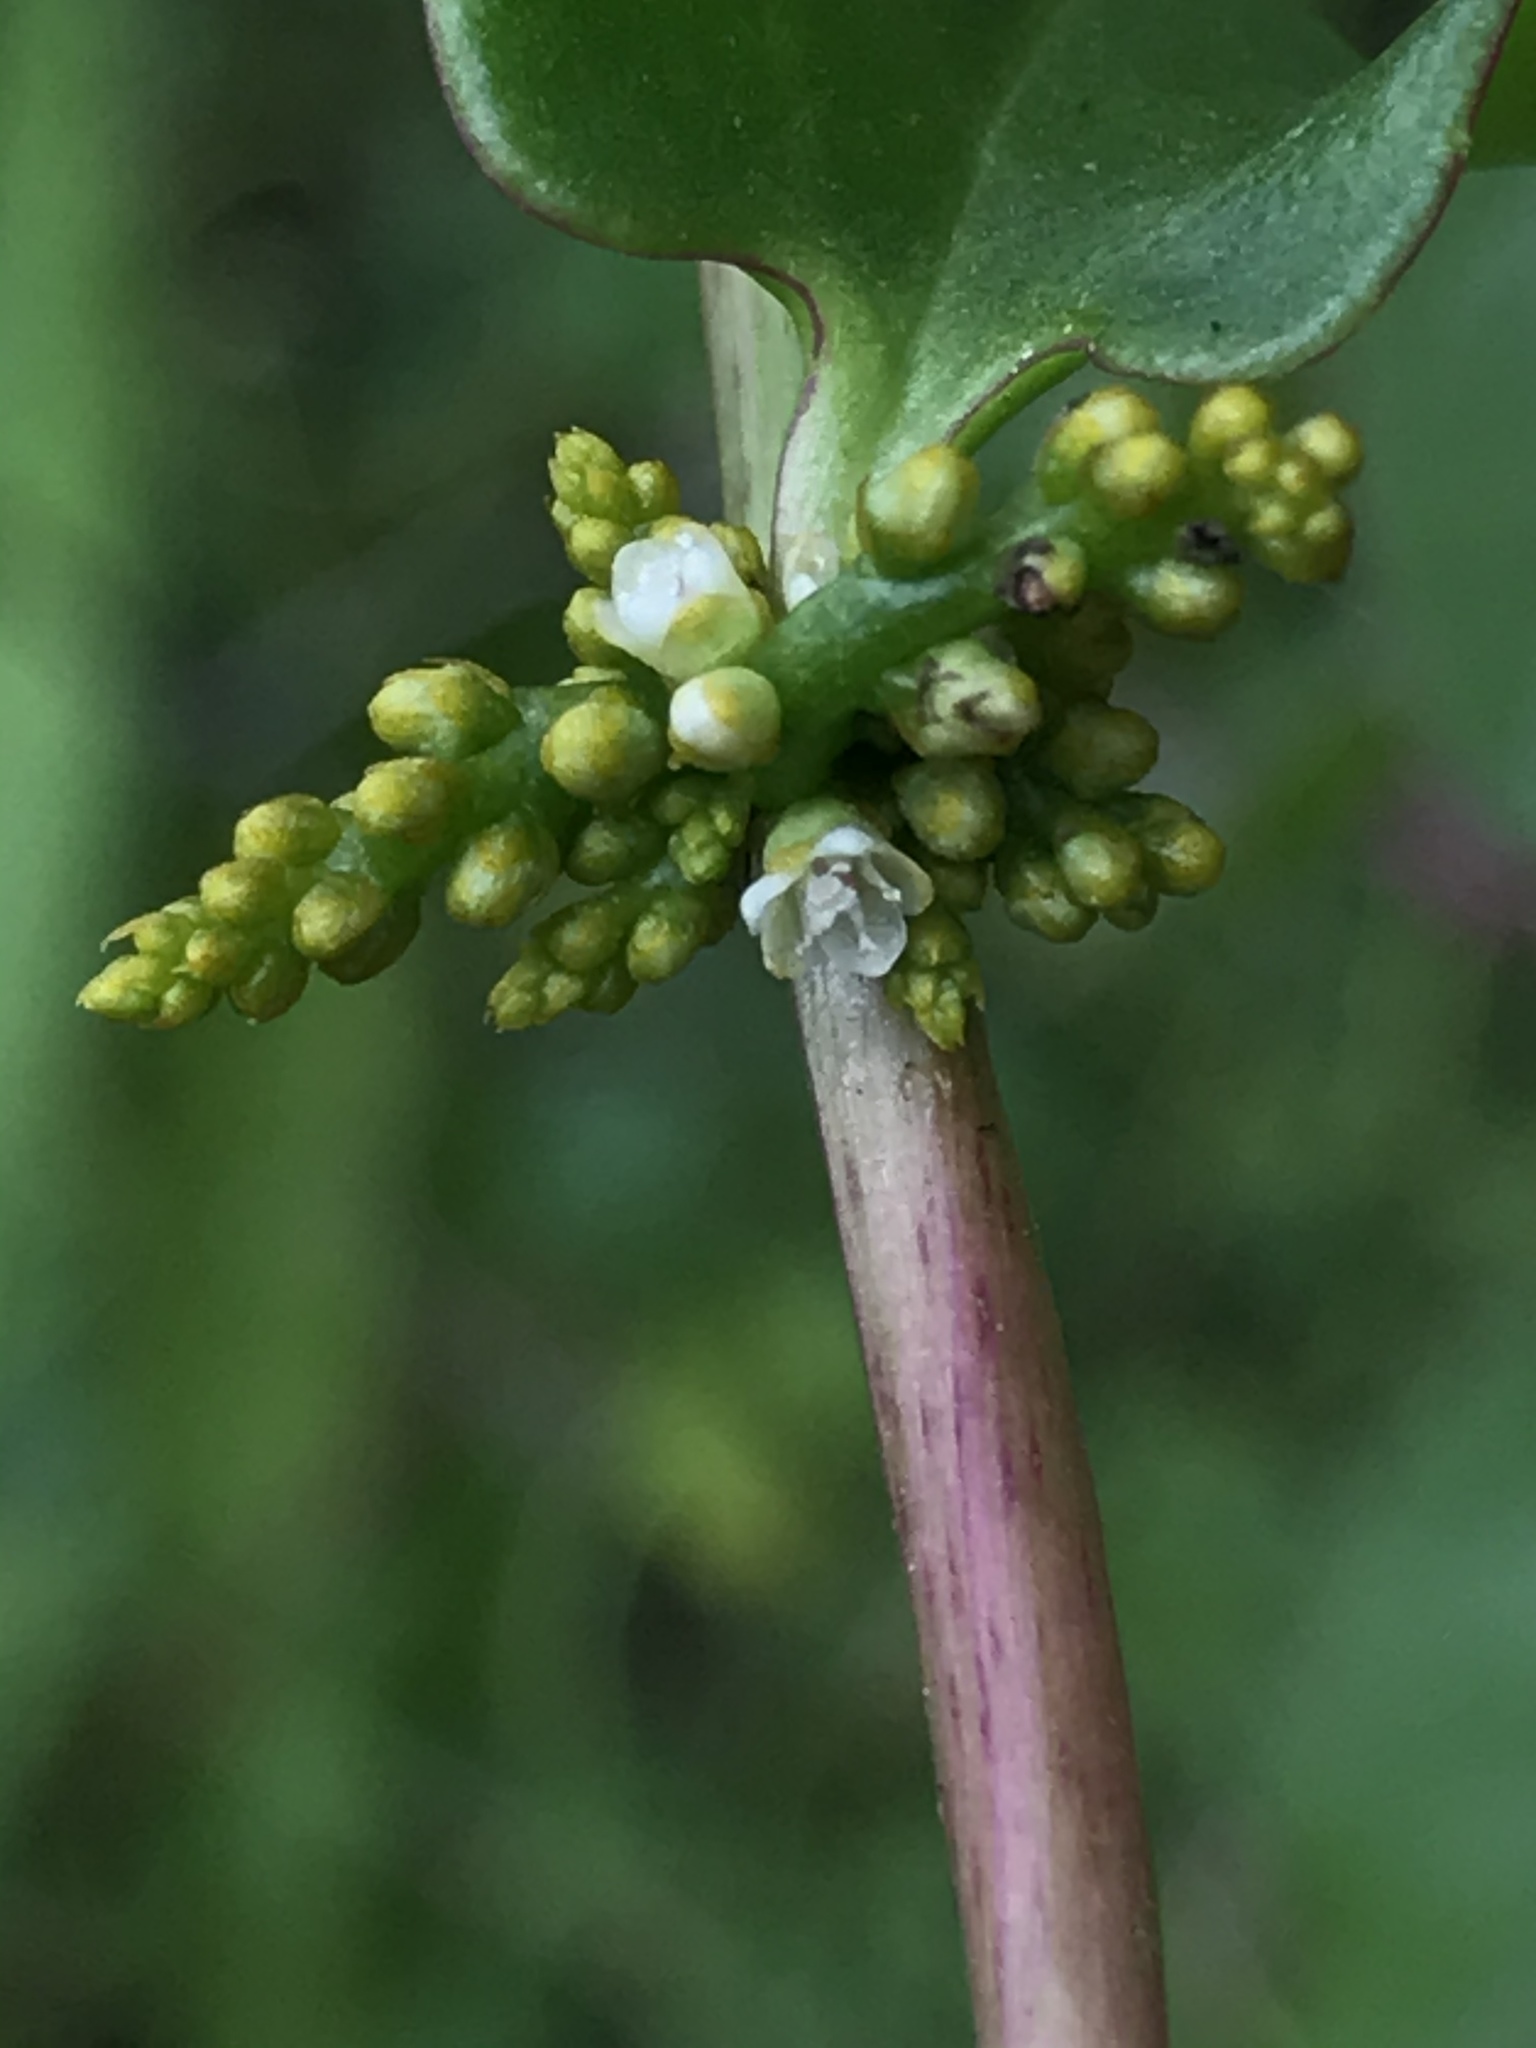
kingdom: Plantae
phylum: Tracheophyta
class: Magnoliopsida
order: Caryophyllales
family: Basellaceae
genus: Anredera
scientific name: Anredera brachystachys
